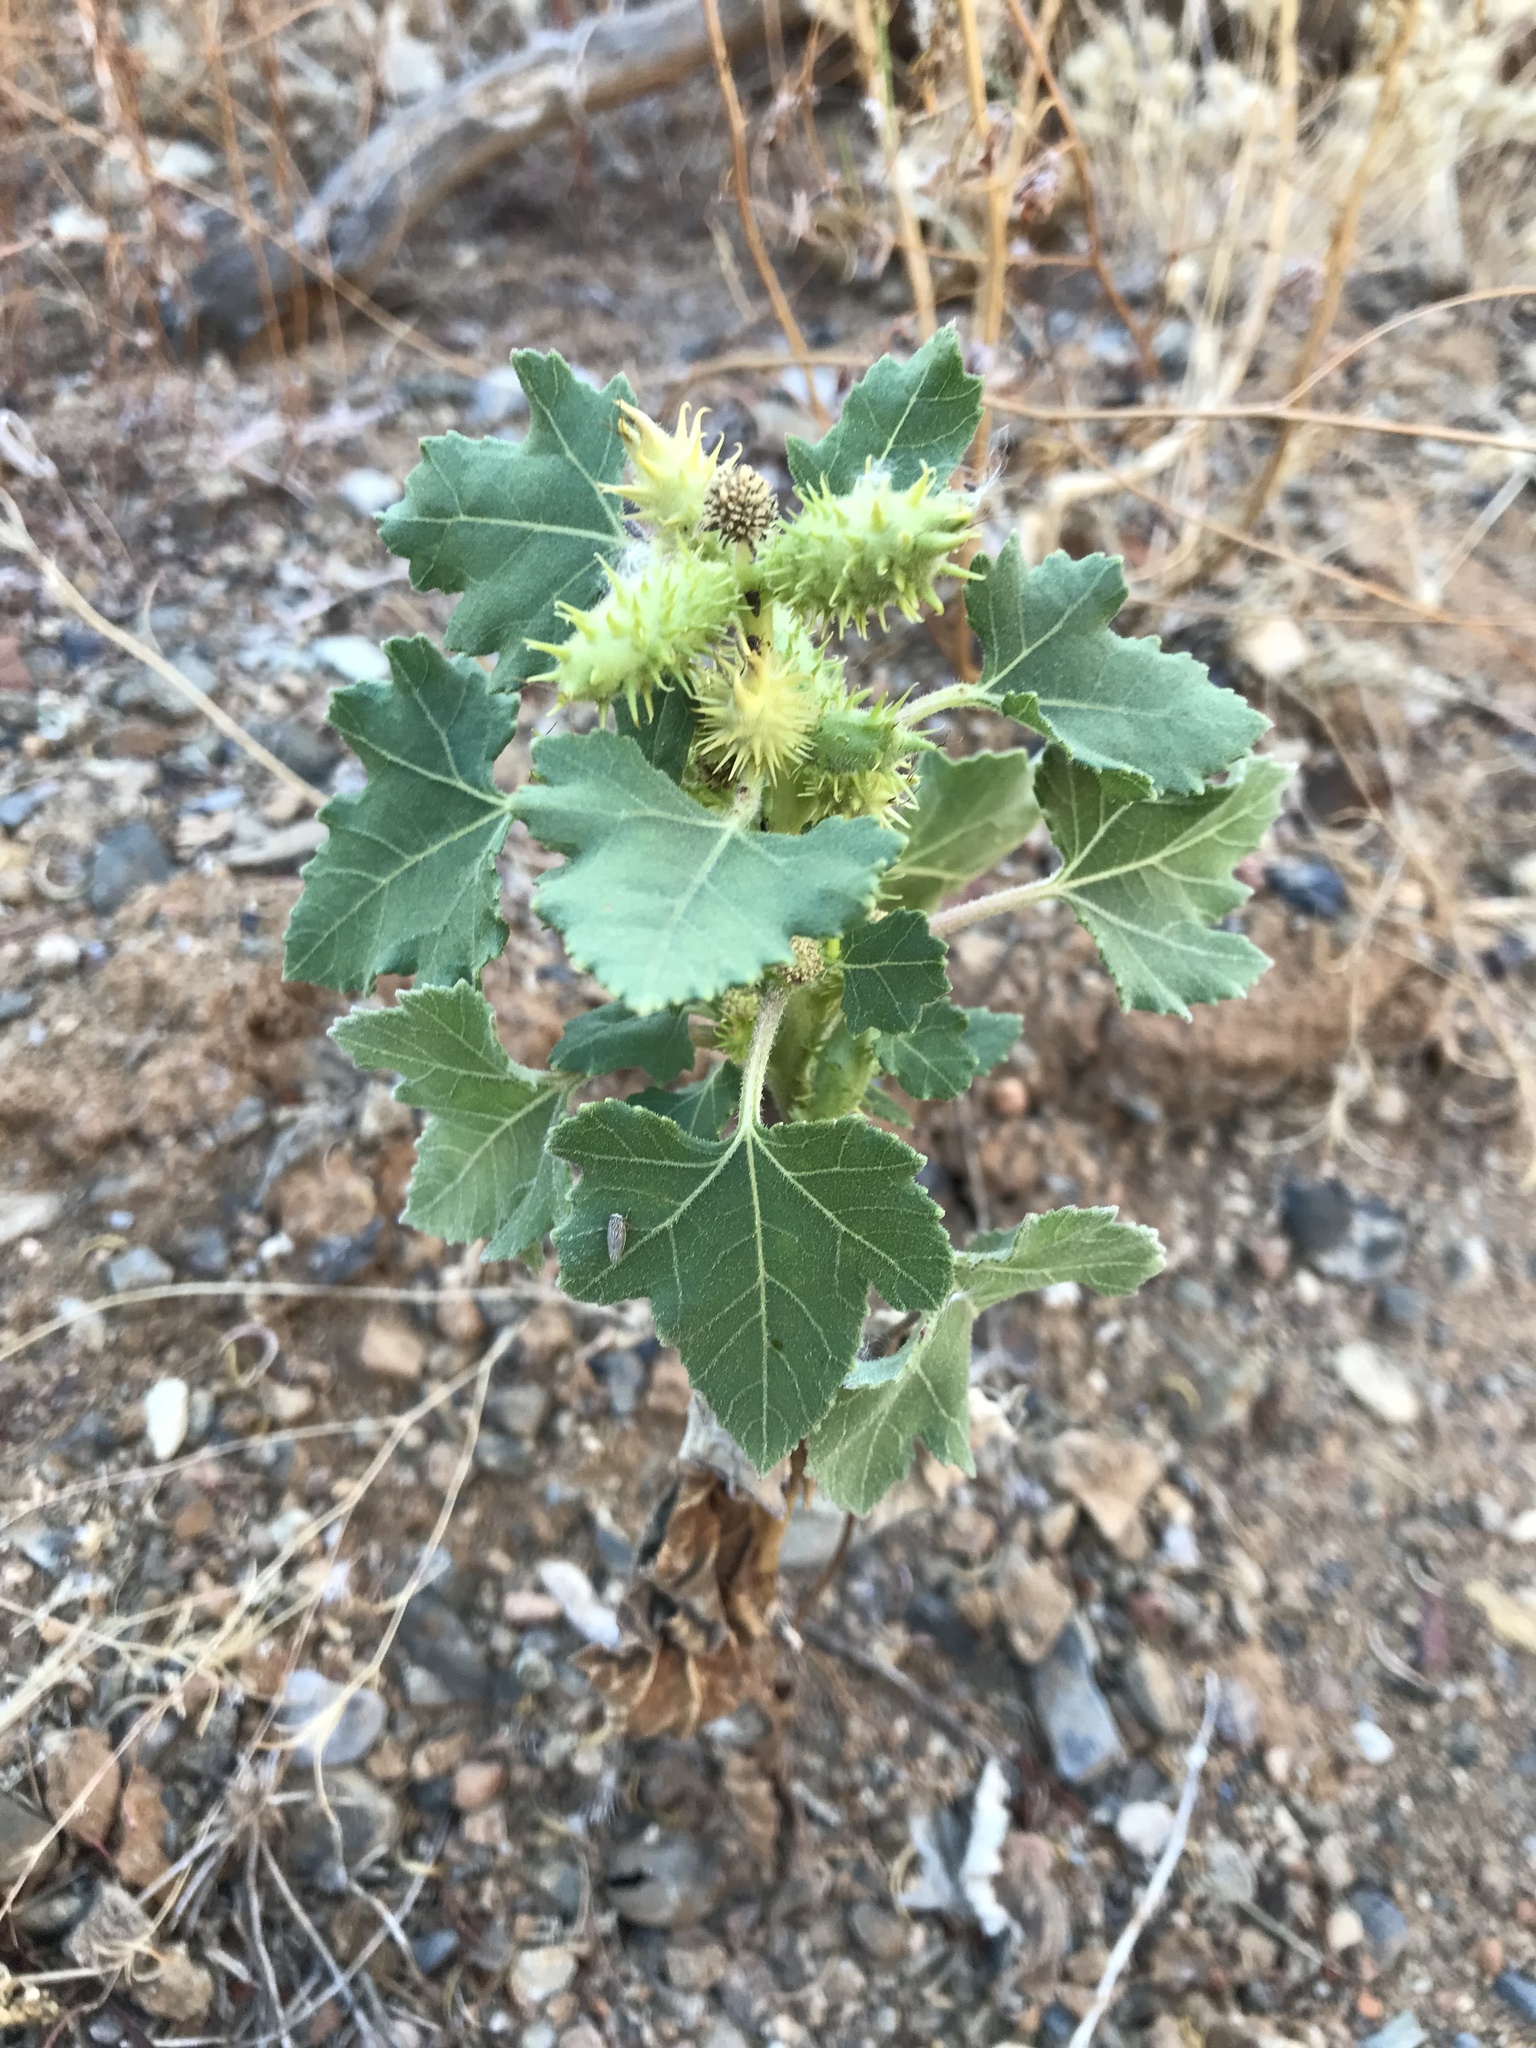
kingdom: Plantae
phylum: Tracheophyta
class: Magnoliopsida
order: Asterales
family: Asteraceae
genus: Xanthium
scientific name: Xanthium strumarium
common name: Rough cocklebur
